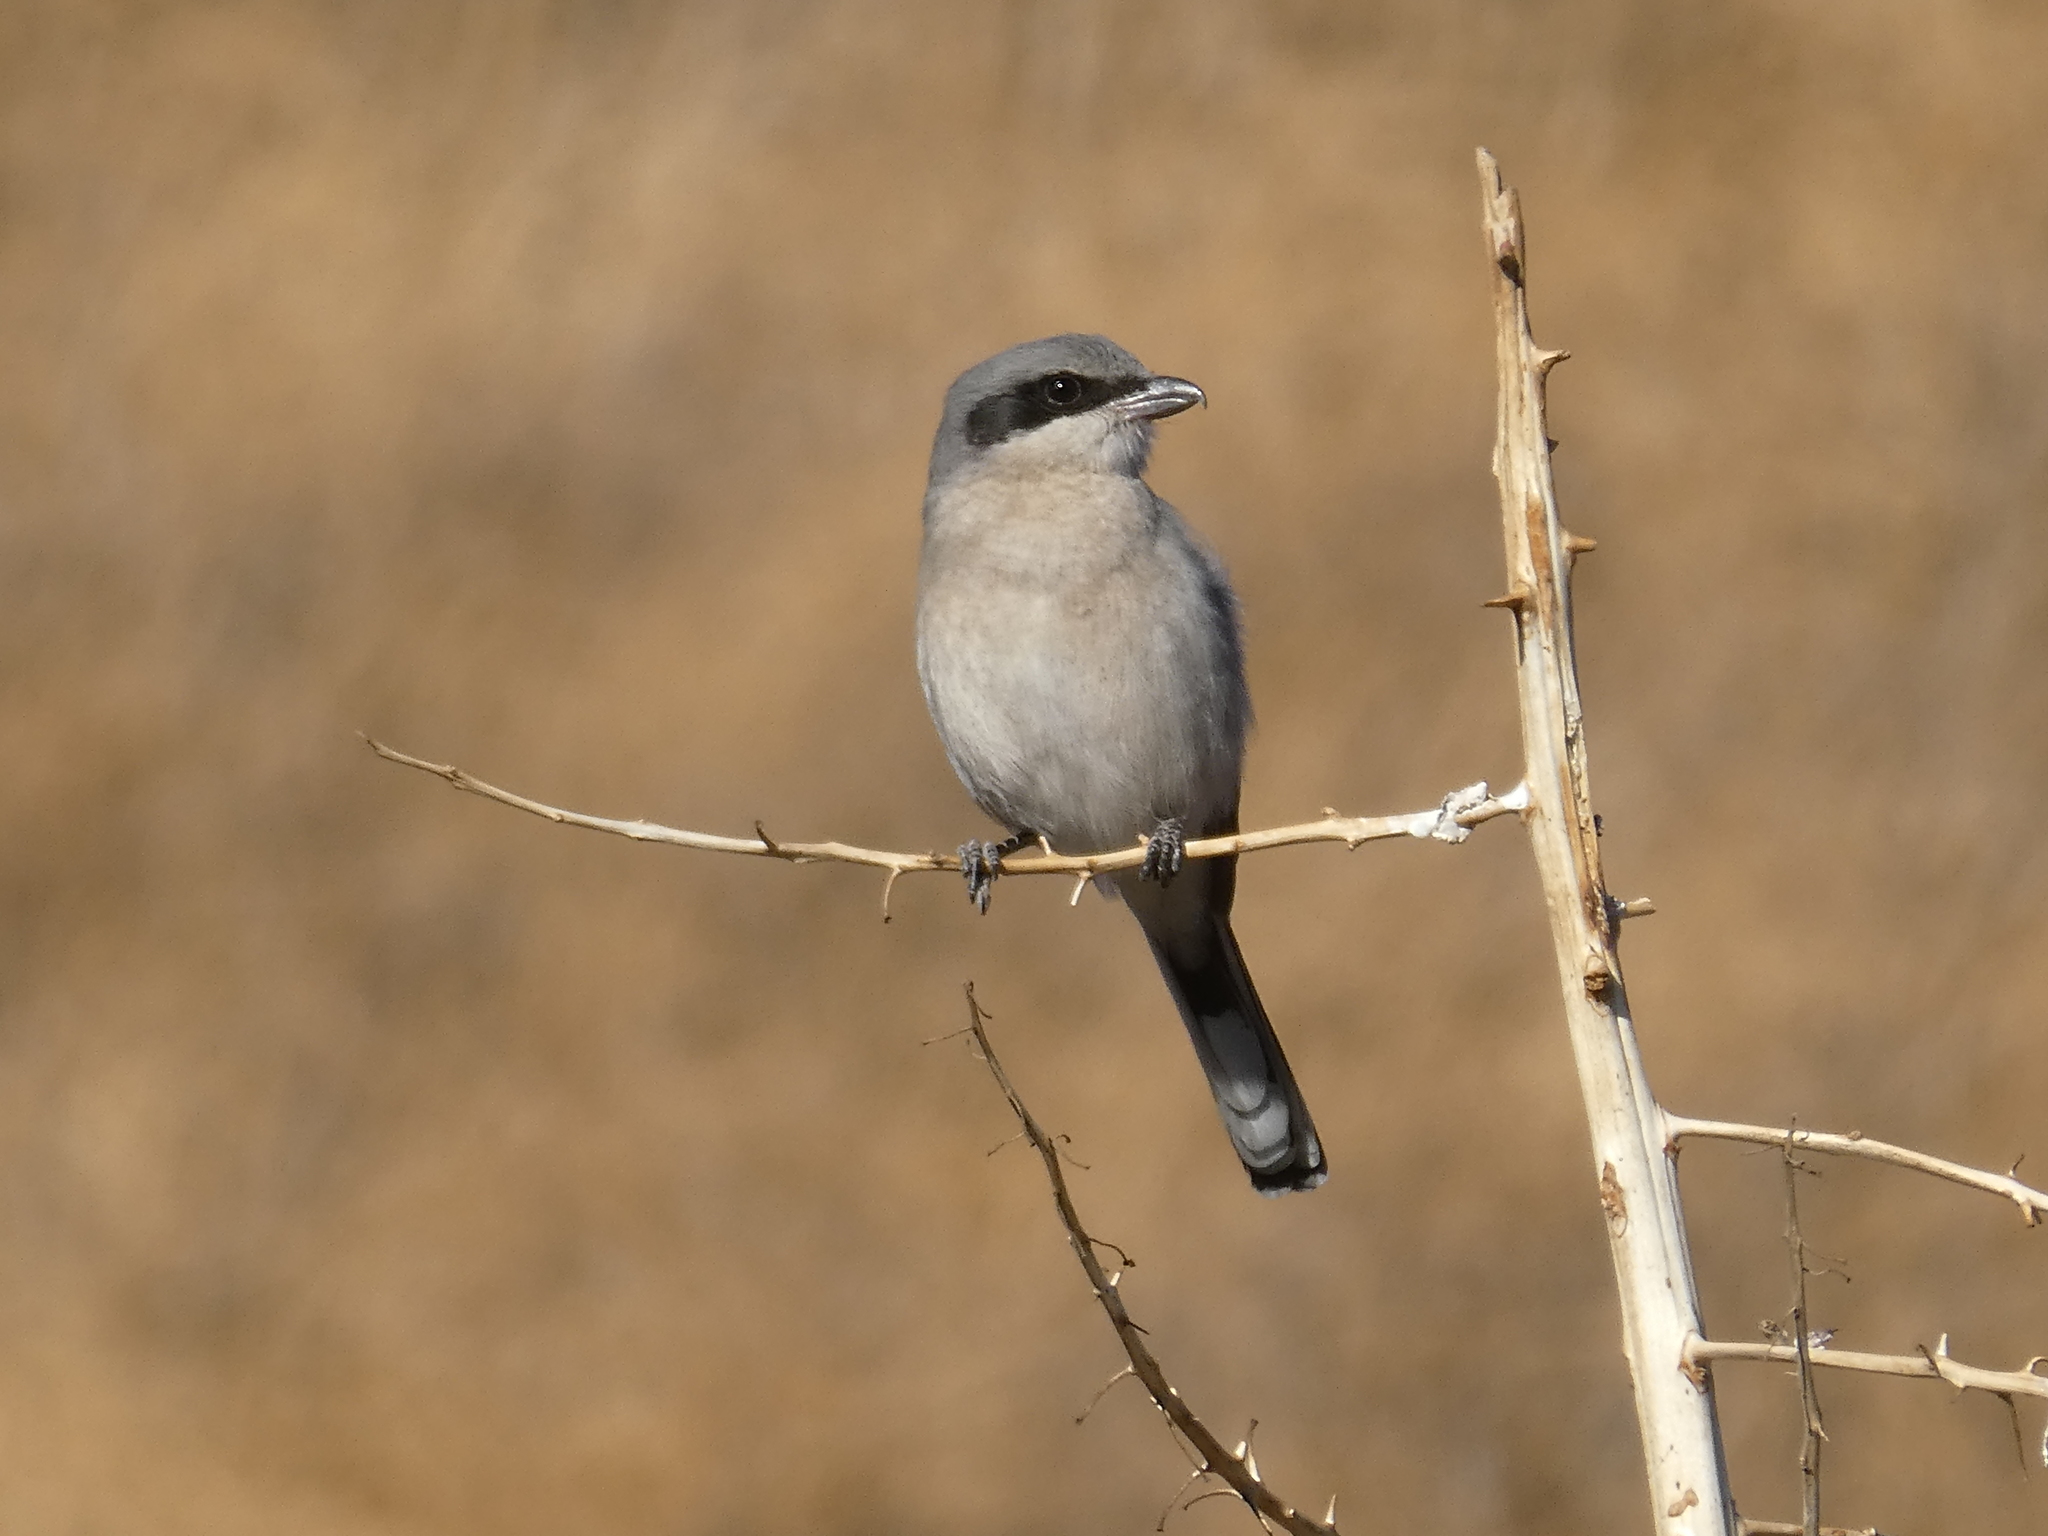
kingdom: Animalia
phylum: Chordata
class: Aves
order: Passeriformes
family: Laniidae
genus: Lanius
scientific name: Lanius ludovicianus
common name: Loggerhead shrike
